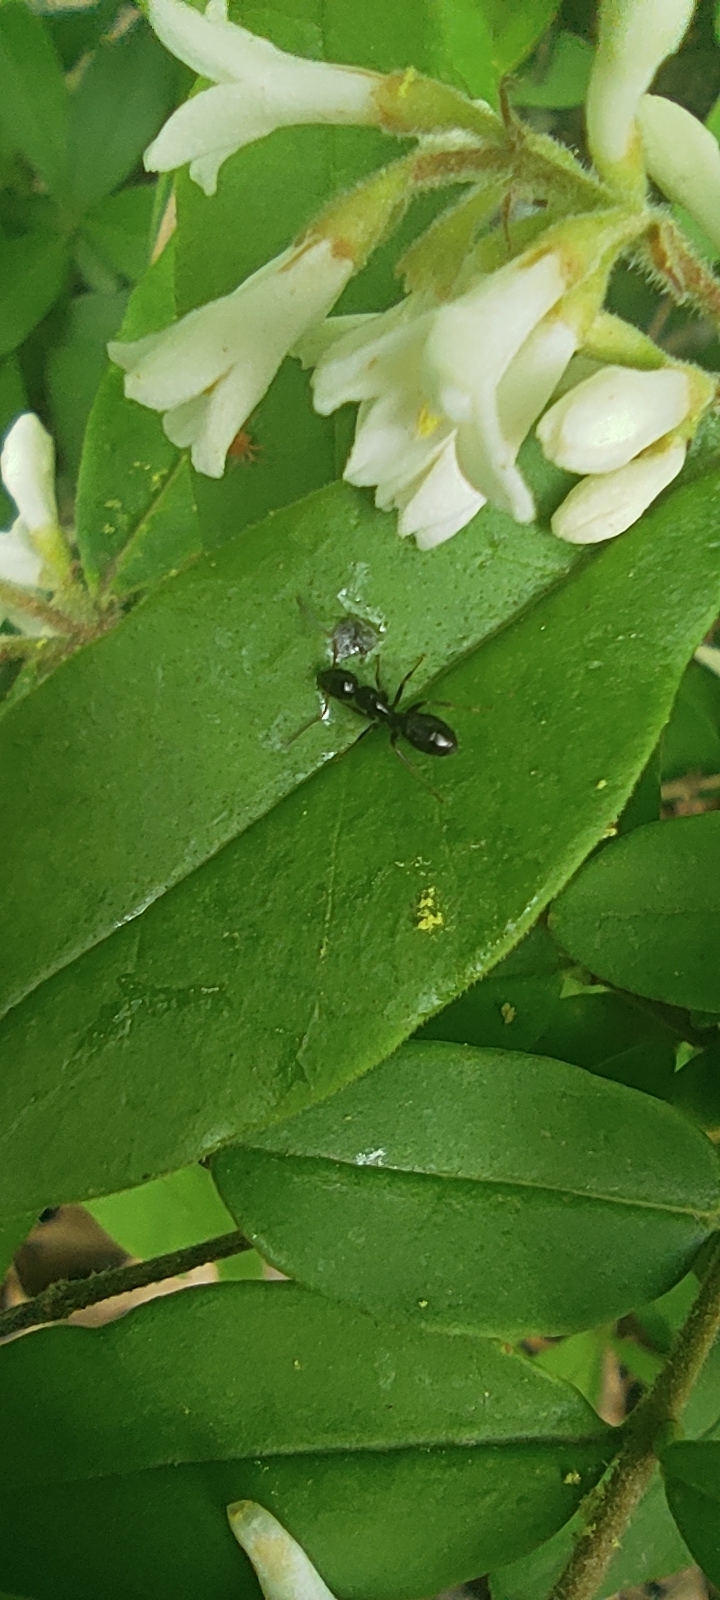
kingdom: Animalia
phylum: Arthropoda
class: Insecta
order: Hymenoptera
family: Formicidae
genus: Myrmentoma
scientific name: Myrmentoma
